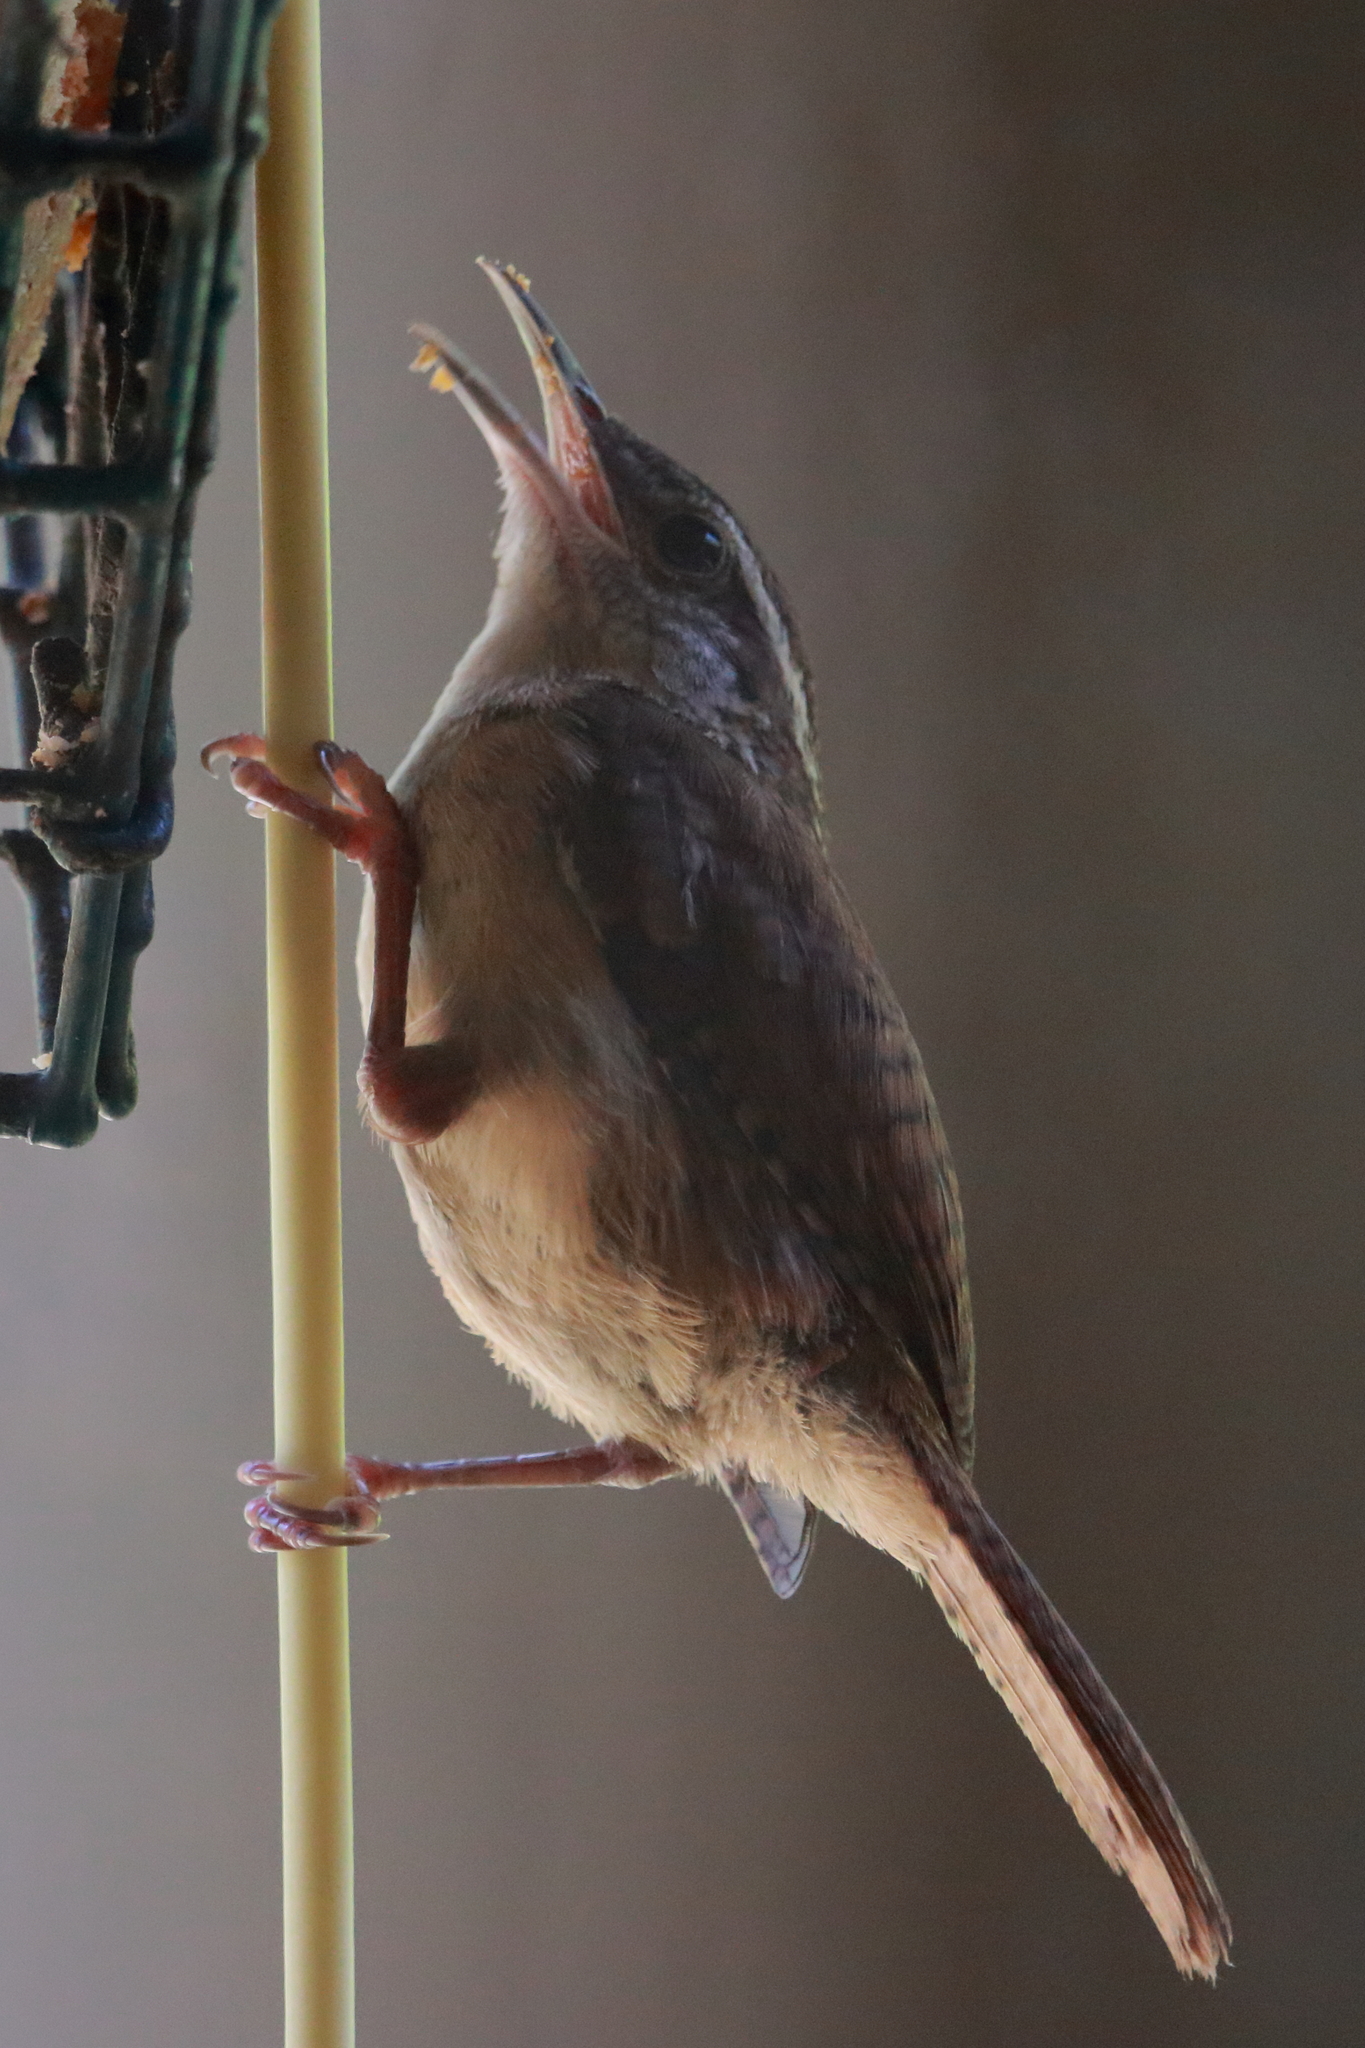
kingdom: Animalia
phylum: Chordata
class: Aves
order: Passeriformes
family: Troglodytidae
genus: Thryothorus
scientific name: Thryothorus ludovicianus
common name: Carolina wren
